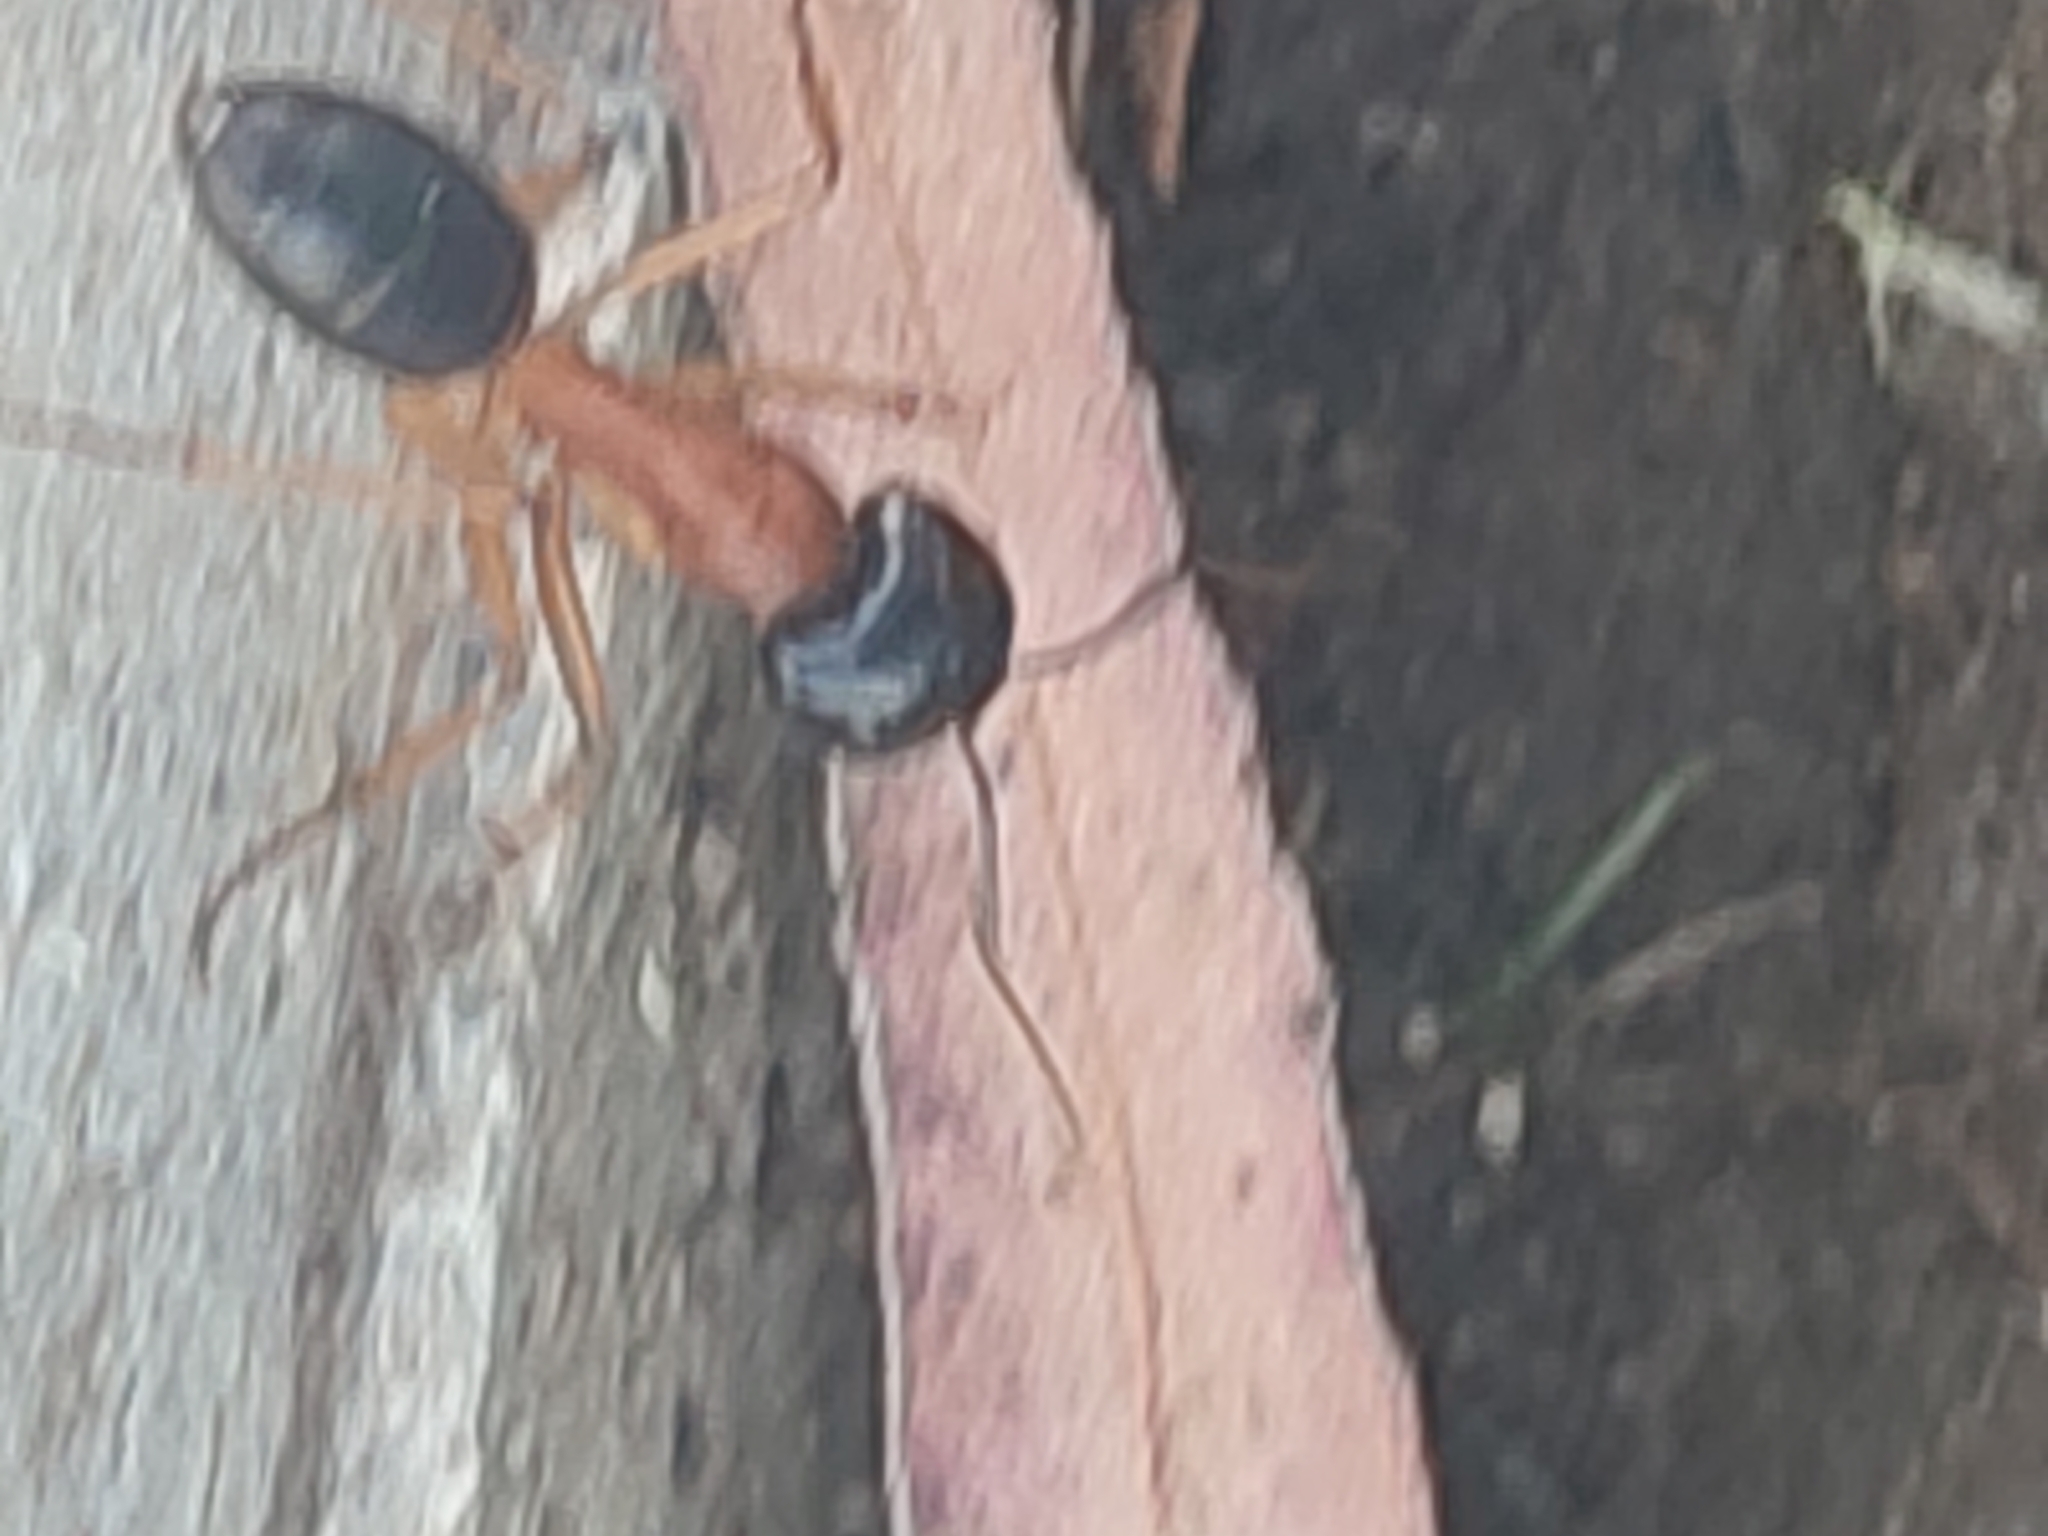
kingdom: Animalia
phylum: Arthropoda
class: Insecta
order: Hymenoptera
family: Formicidae
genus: Camponotus
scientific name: Camponotus nigriceps
